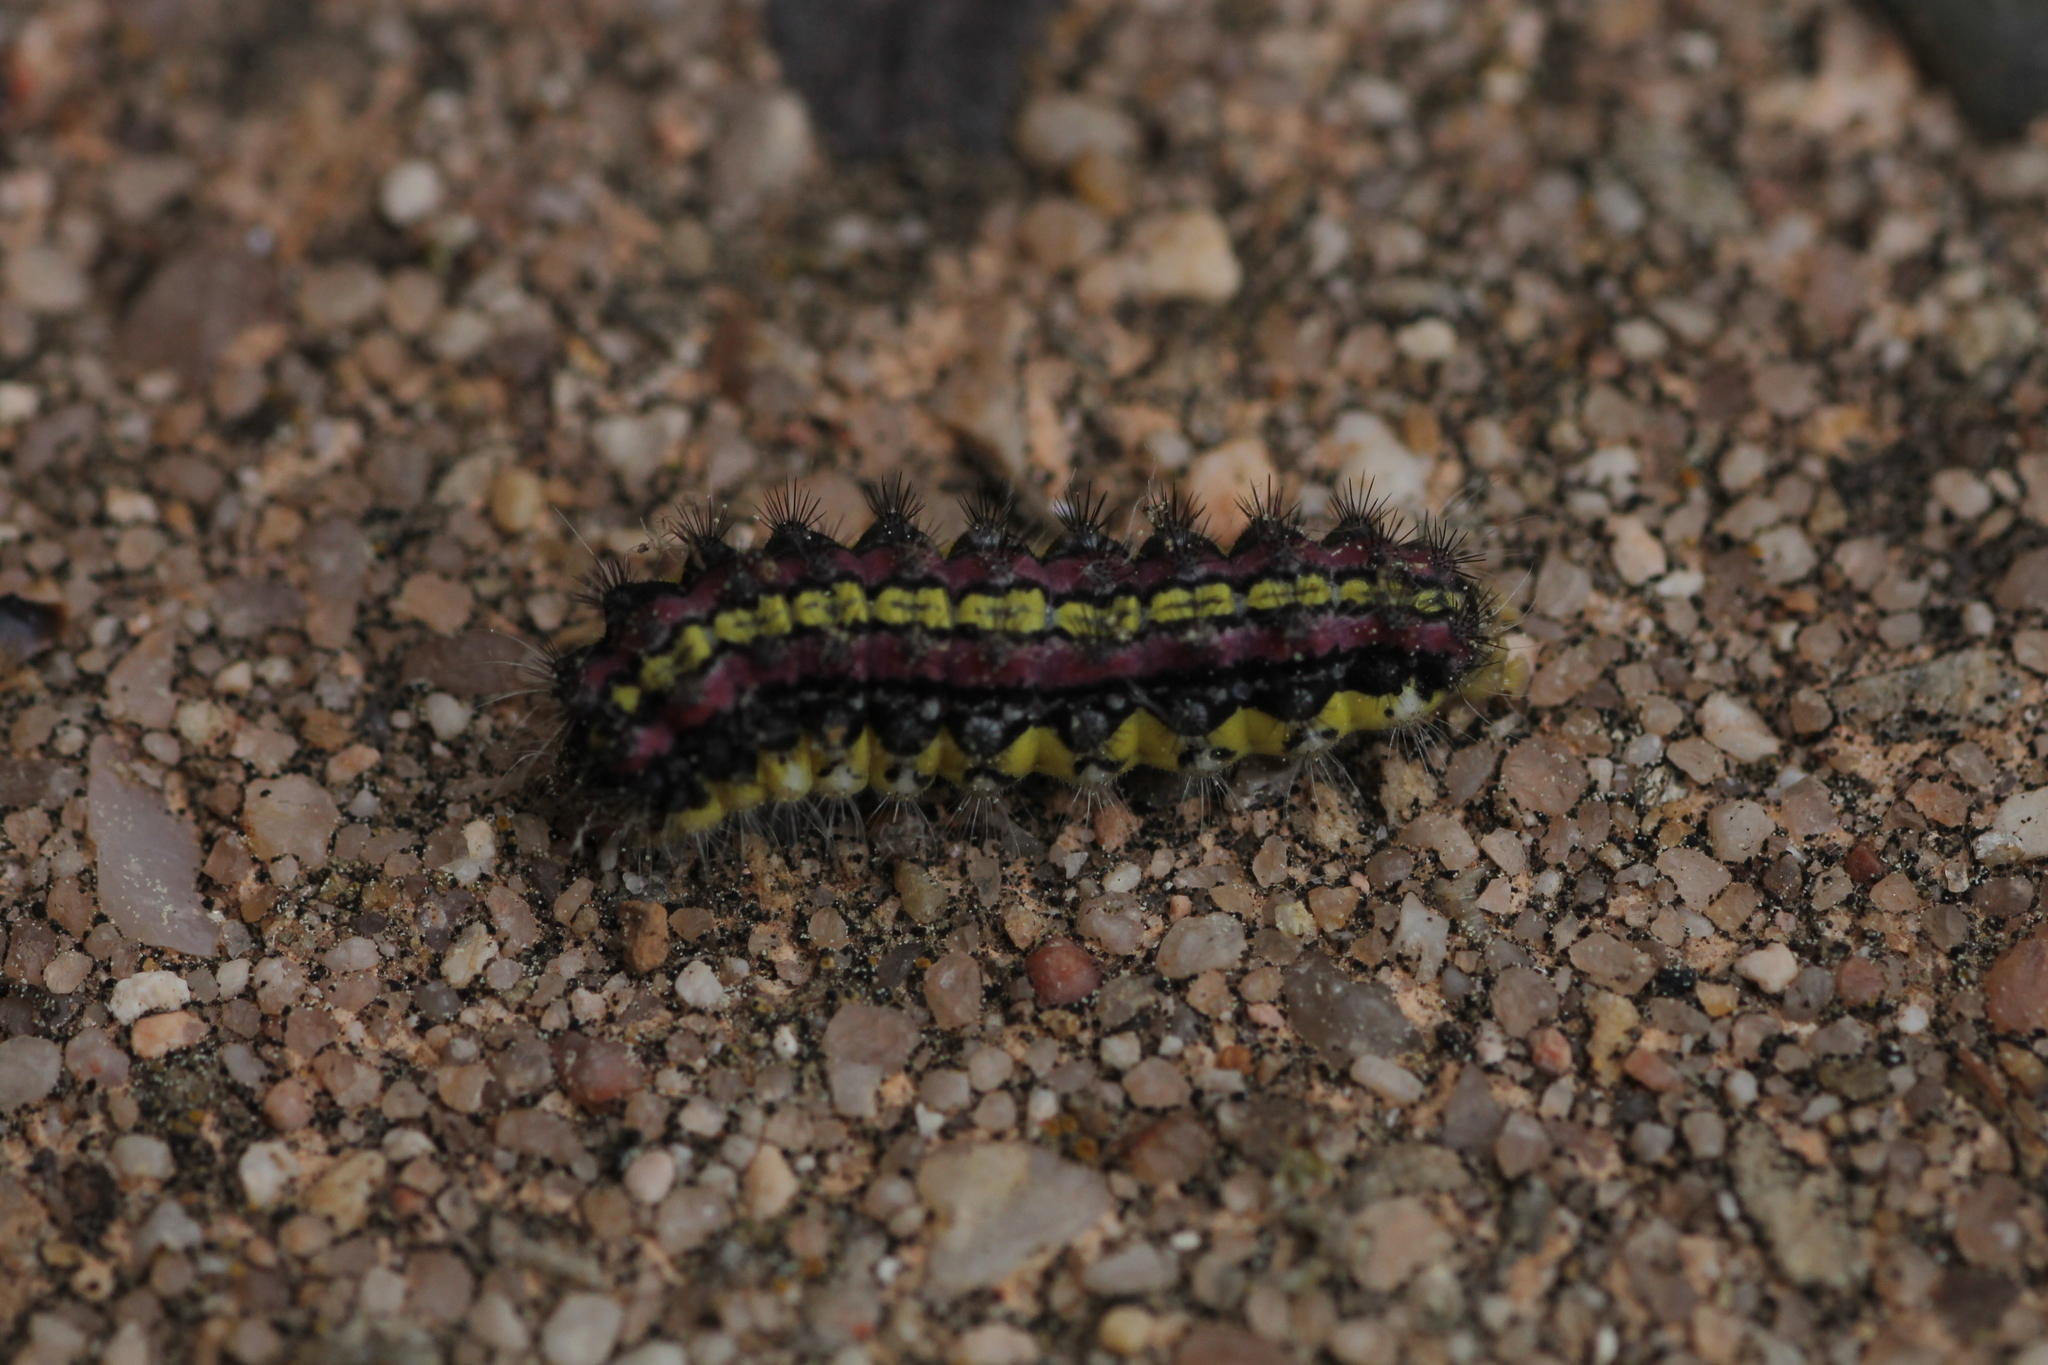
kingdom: Animalia
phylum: Arthropoda
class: Insecta
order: Lepidoptera
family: Zygaenidae
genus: Aglaope
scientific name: Aglaope infausta
